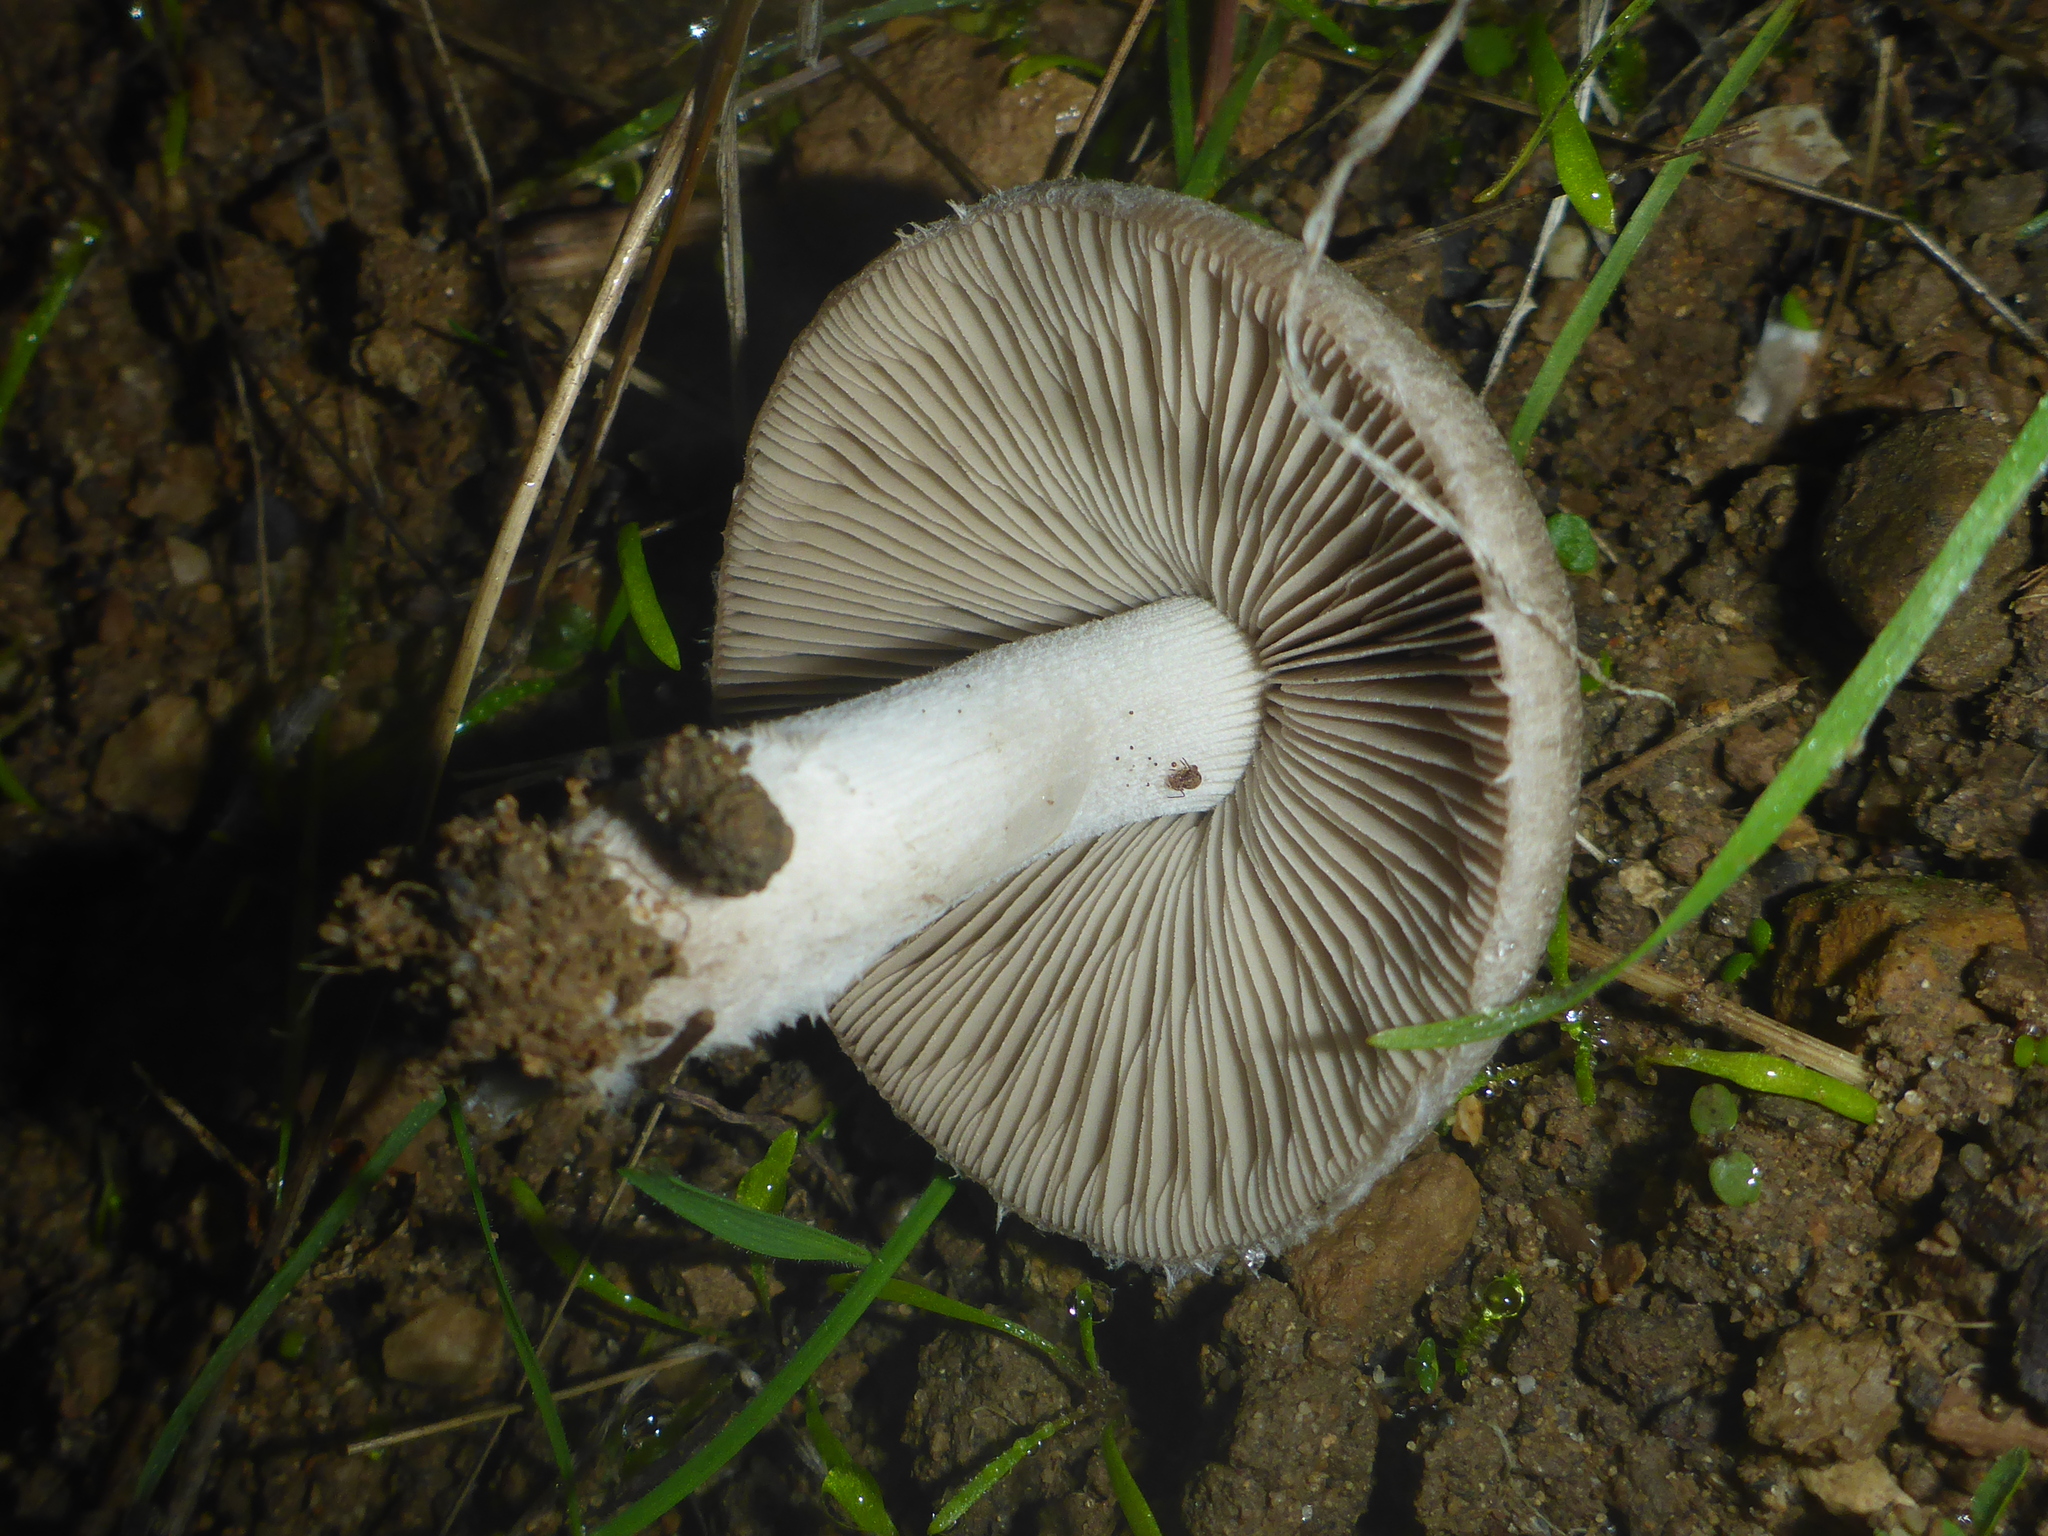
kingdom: Fungi
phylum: Basidiomycota
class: Agaricomycetes
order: Agaricales
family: Psathyrellaceae
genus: Psathyrella
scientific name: Psathyrella uliginicola
